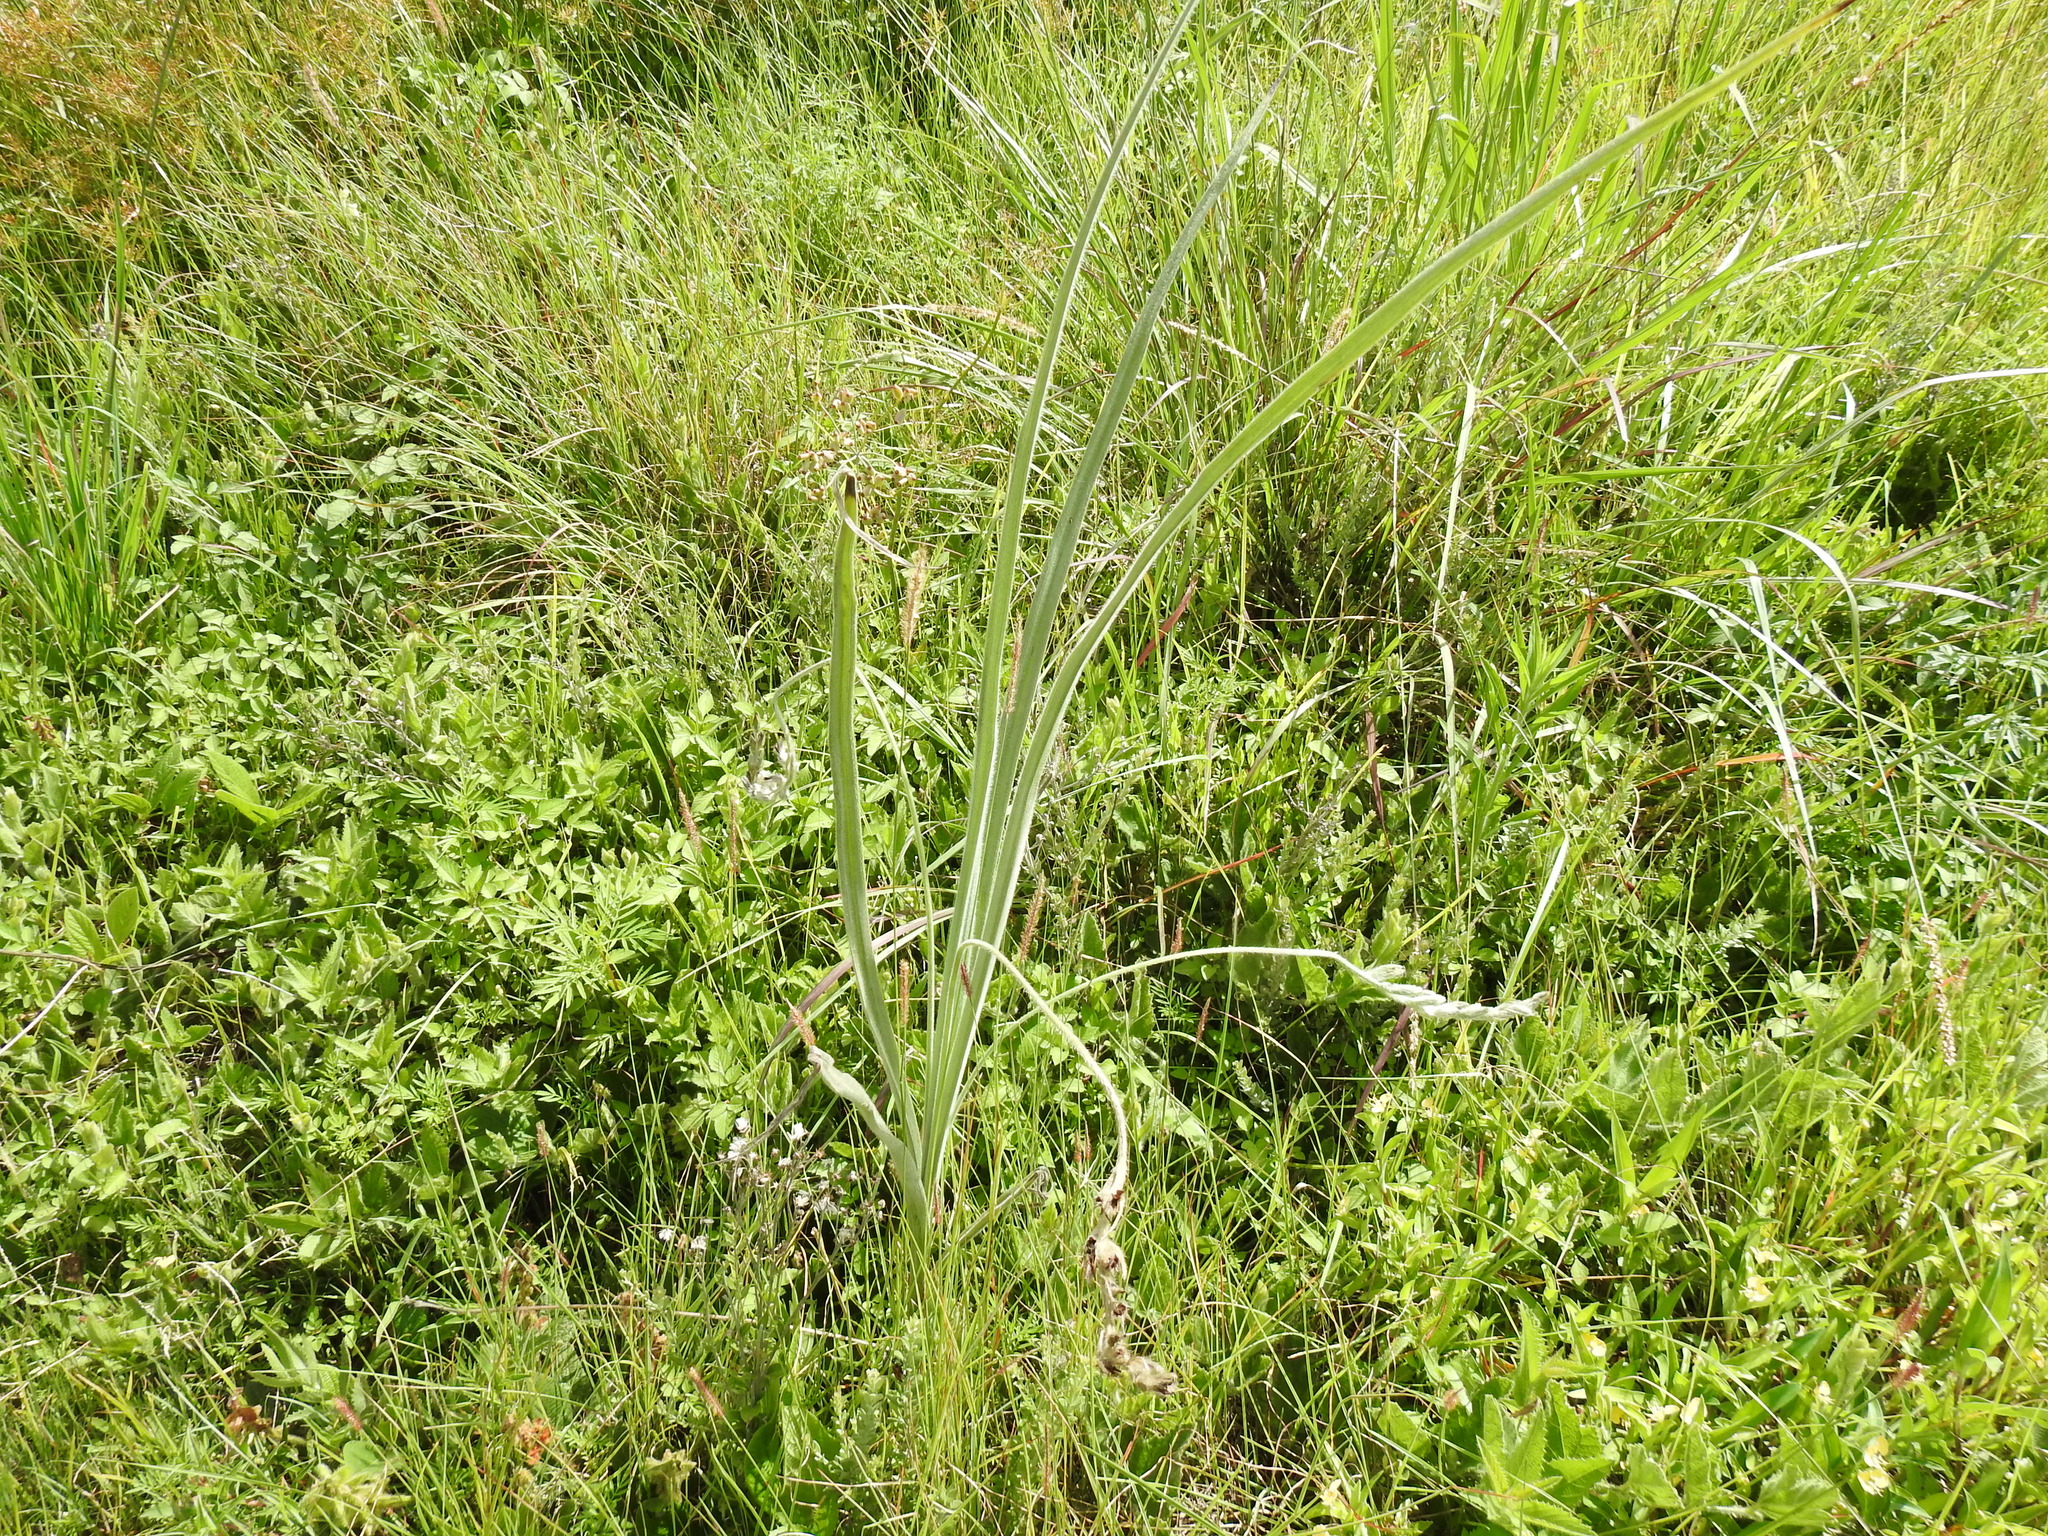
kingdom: Plantae
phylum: Tracheophyta
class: Liliopsida
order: Asparagales
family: Hypoxidaceae
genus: Hypoxis
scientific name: Hypoxis rigidula
